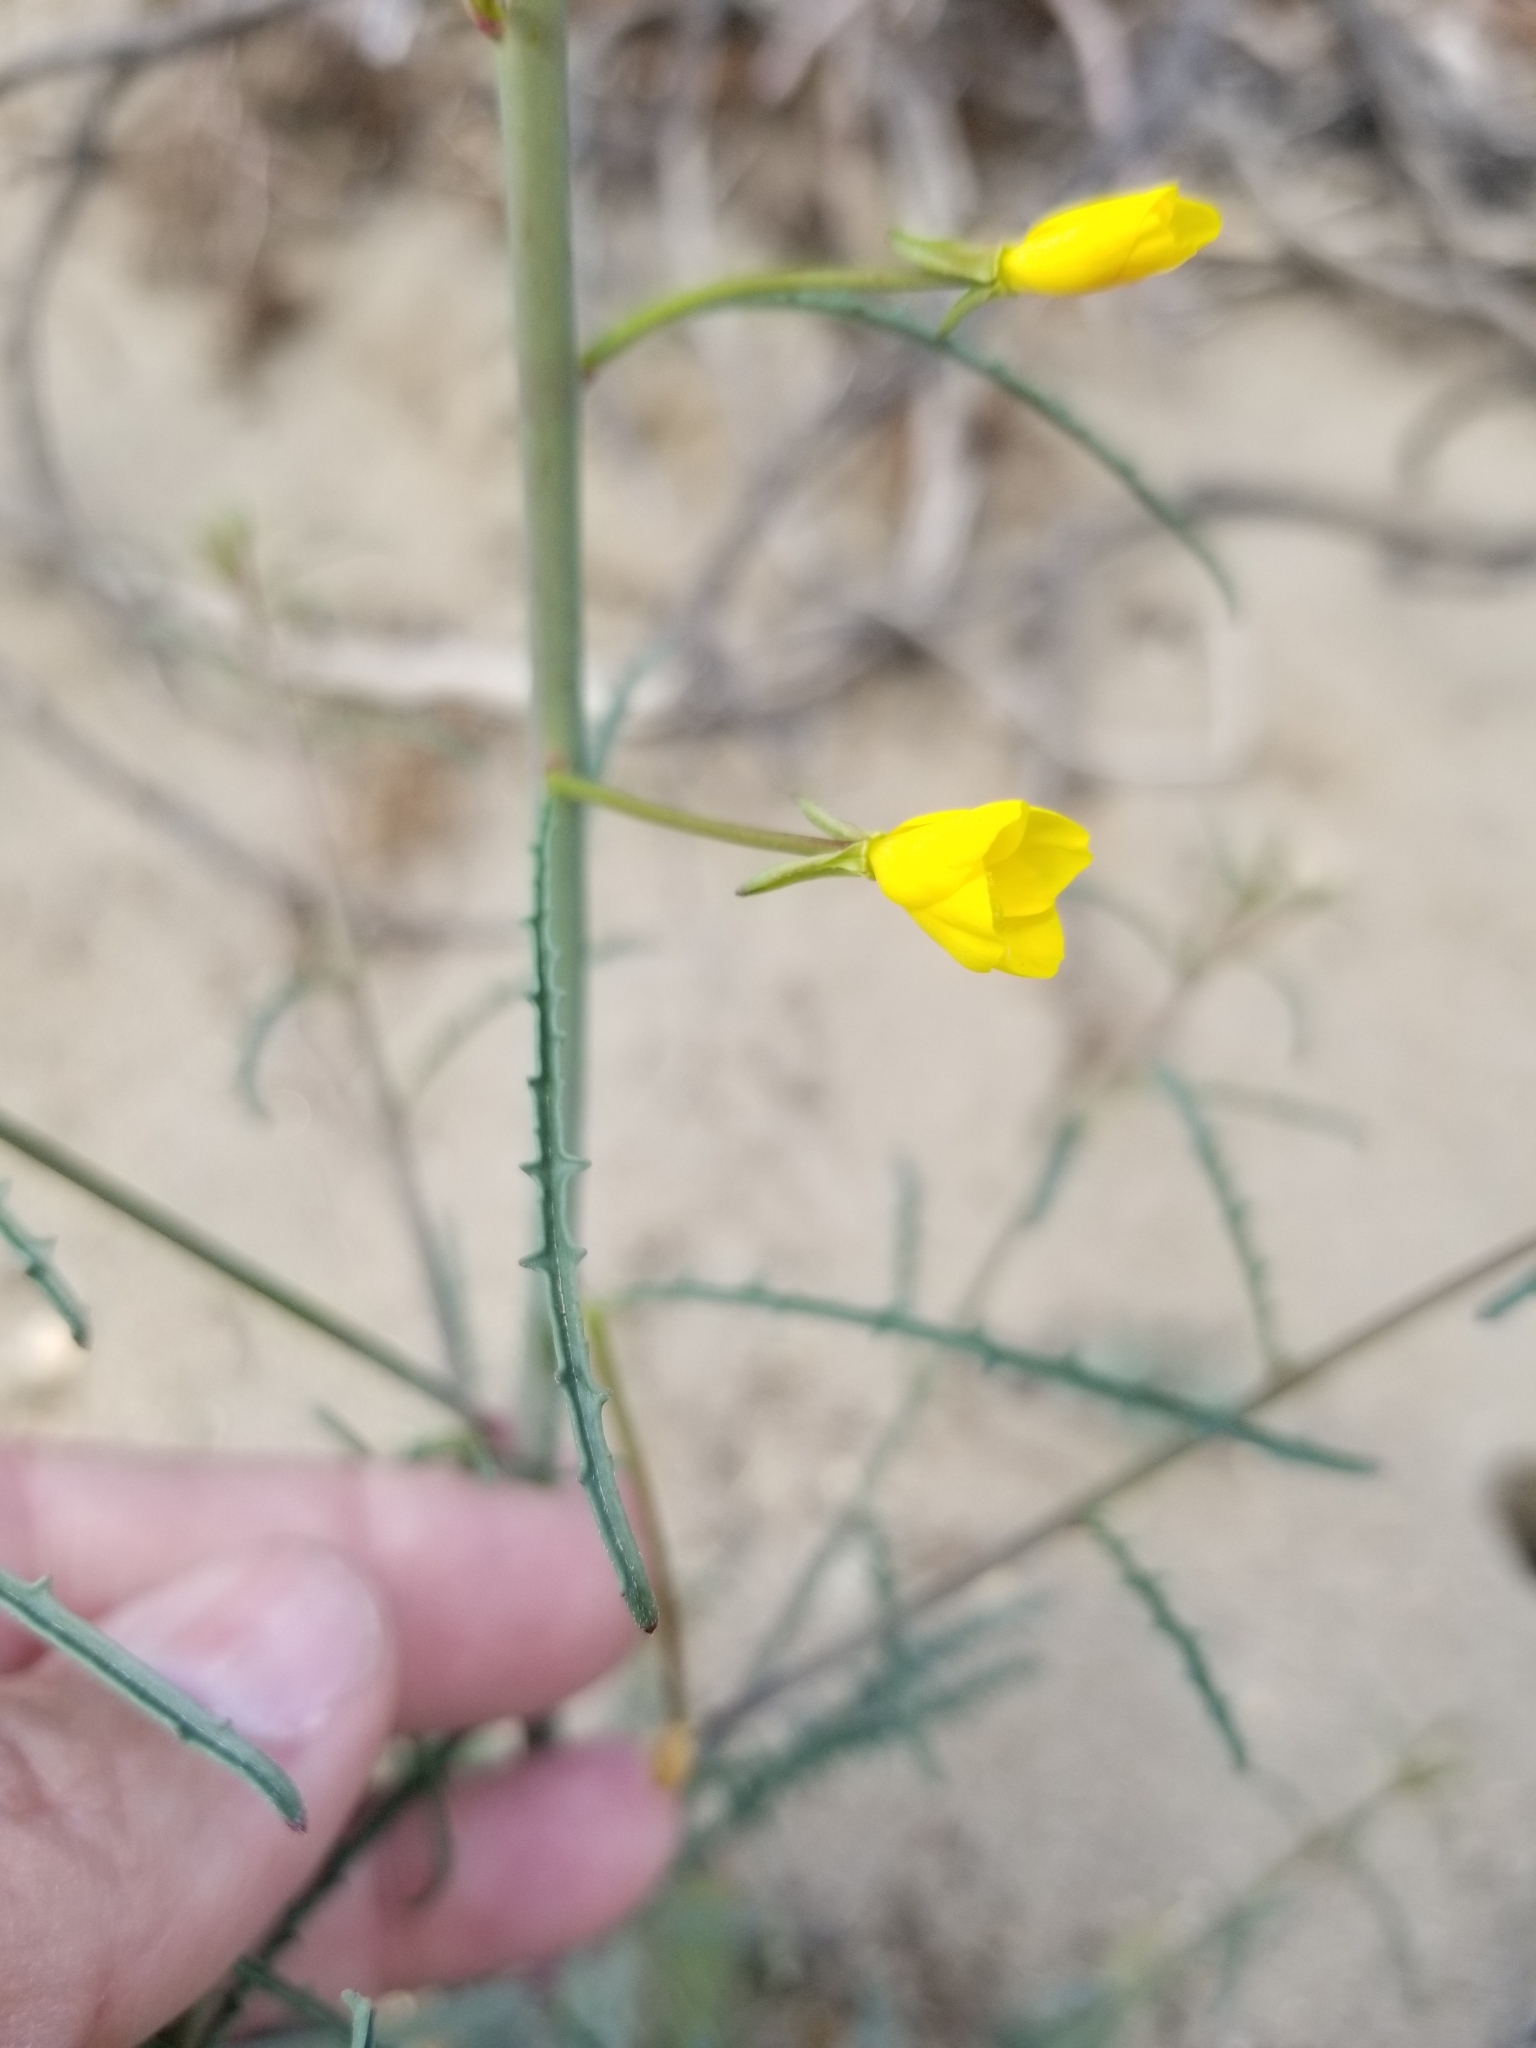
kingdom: Plantae
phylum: Tracheophyta
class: Magnoliopsida
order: Myrtales
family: Onagraceae
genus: Eulobus
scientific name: Eulobus californicus
